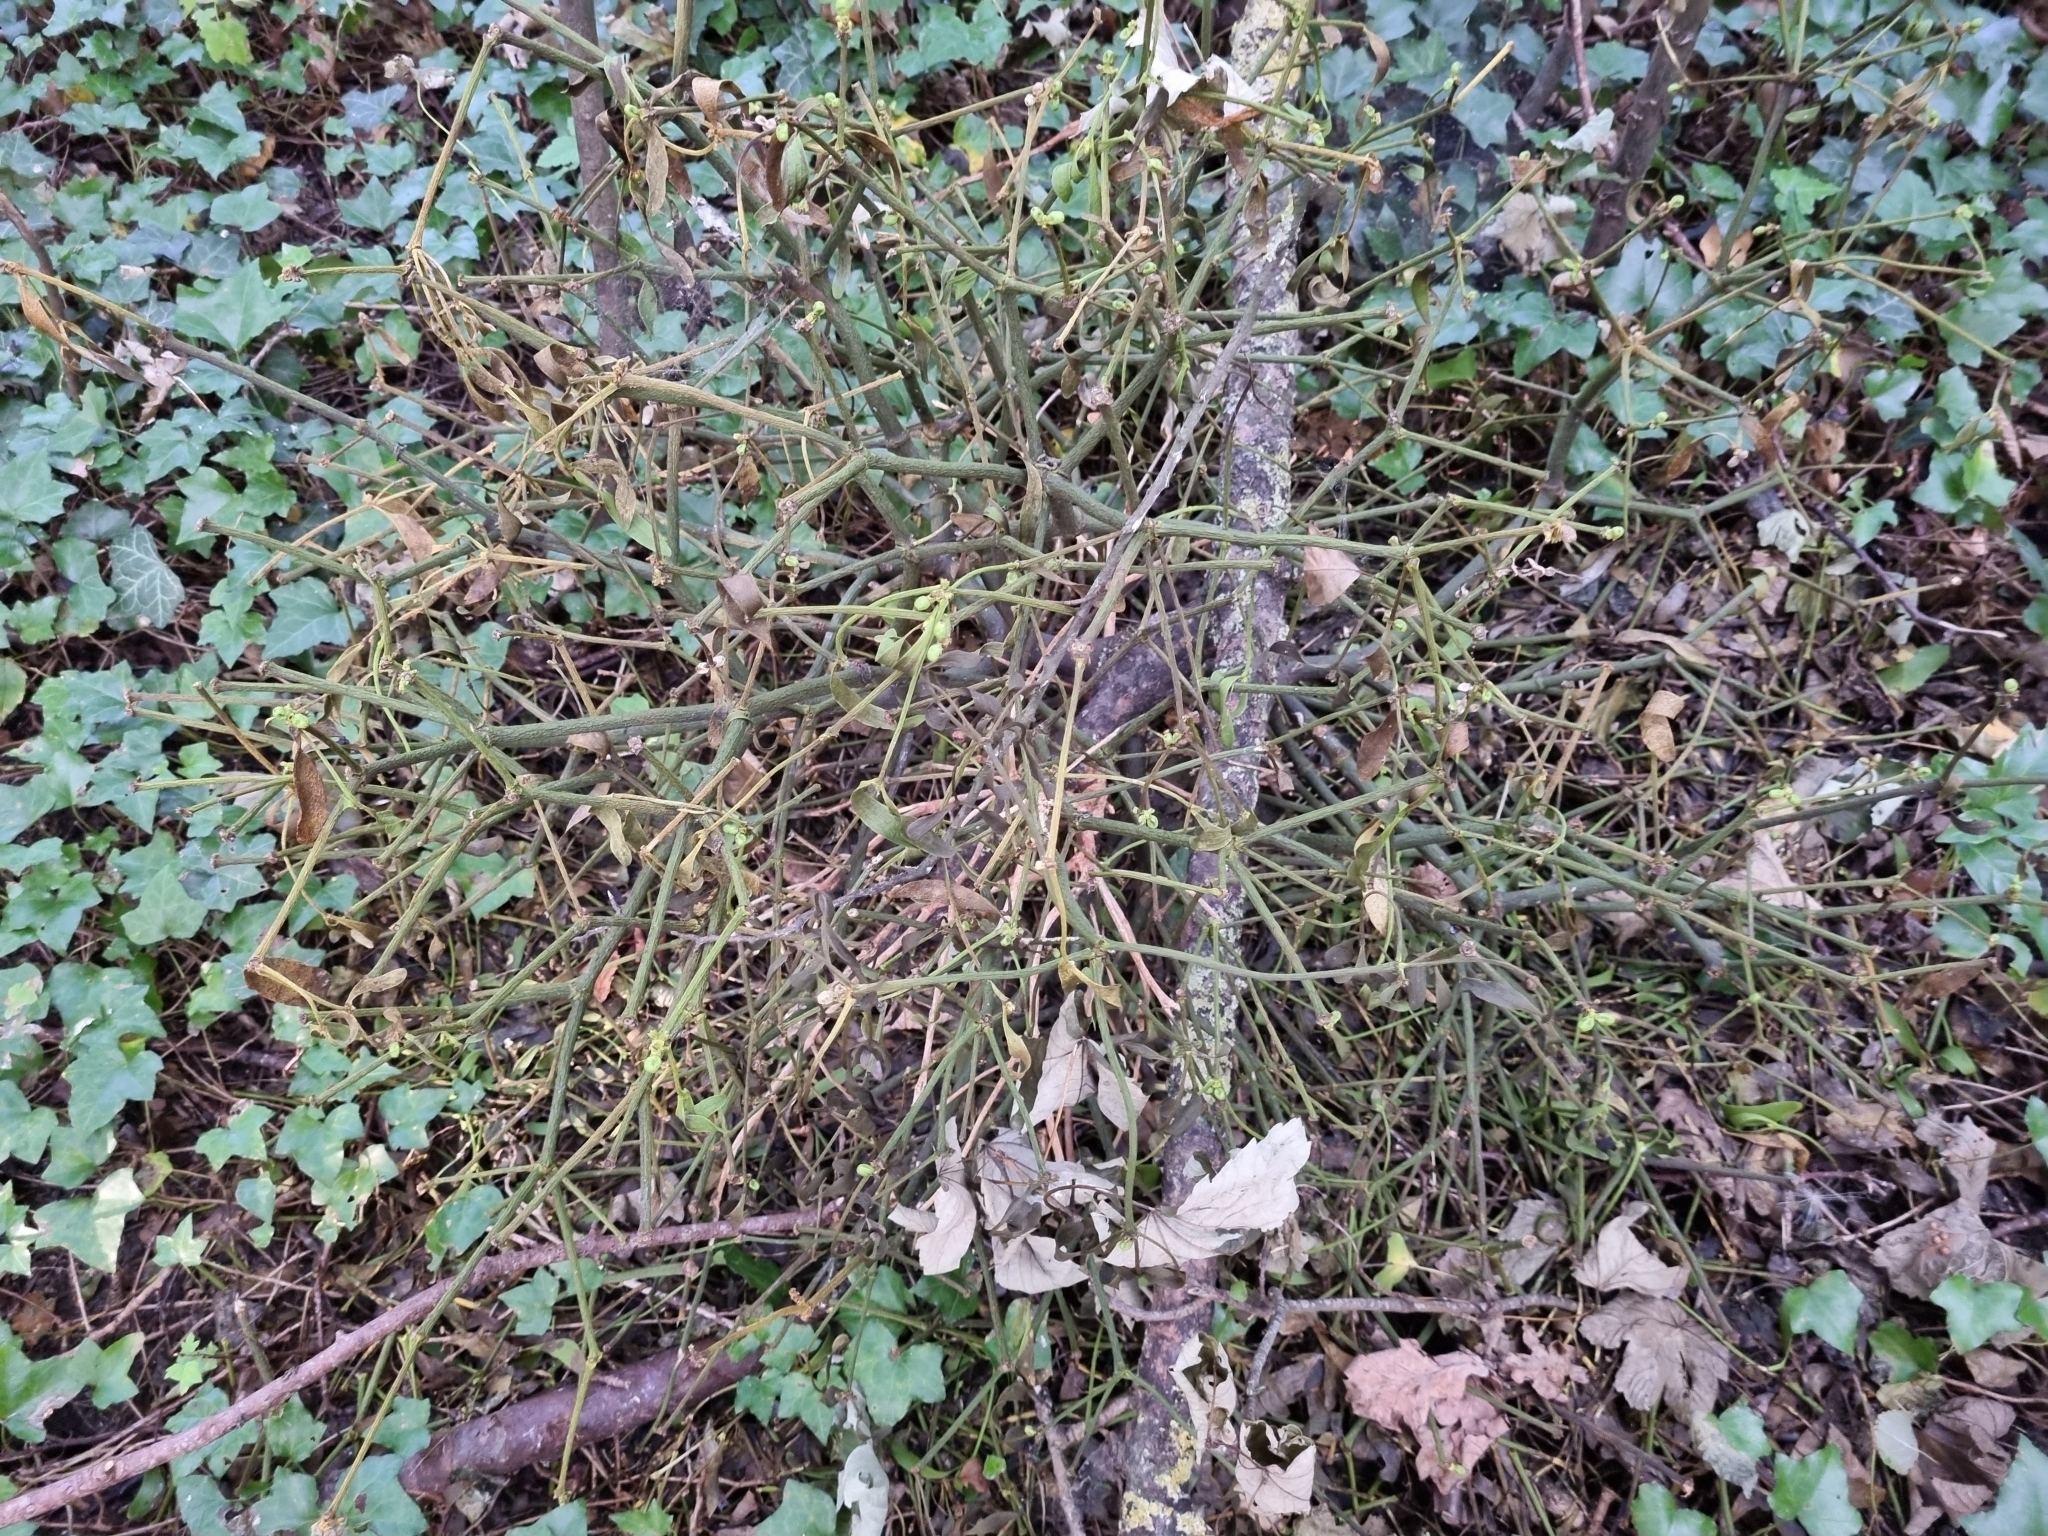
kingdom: Plantae
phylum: Tracheophyta
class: Magnoliopsida
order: Santalales
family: Viscaceae
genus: Viscum
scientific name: Viscum album
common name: Mistletoe
